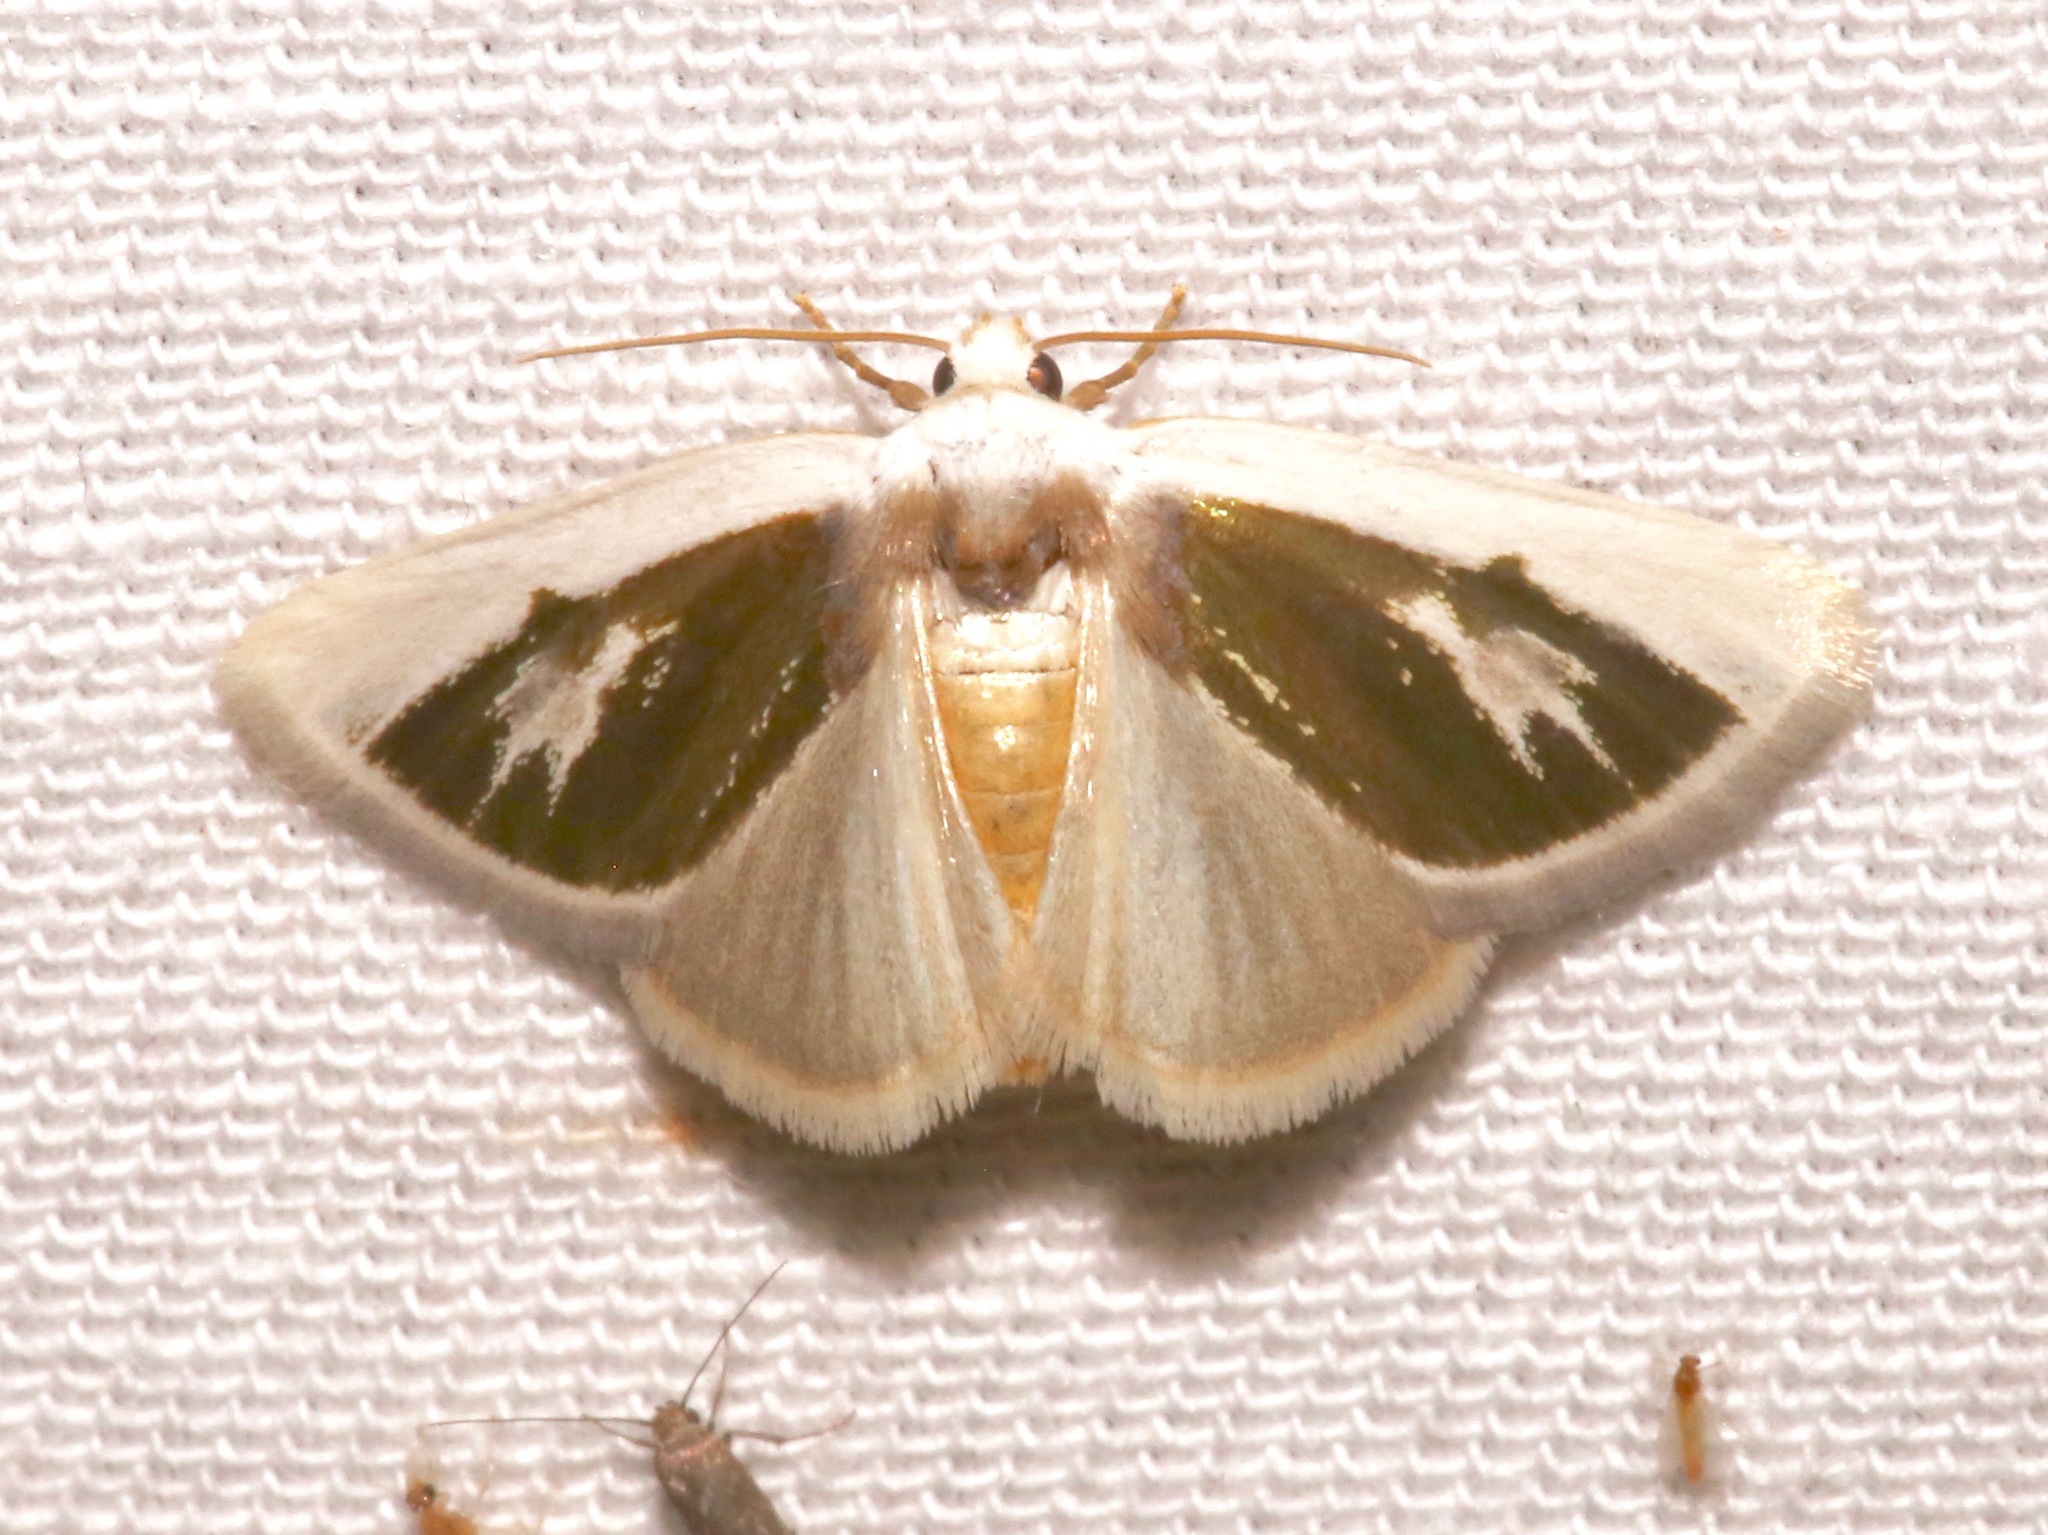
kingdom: Animalia
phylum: Arthropoda
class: Insecta
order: Lepidoptera
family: Noctuidae
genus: Neumoegenia
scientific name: Neumoegenia poetica
